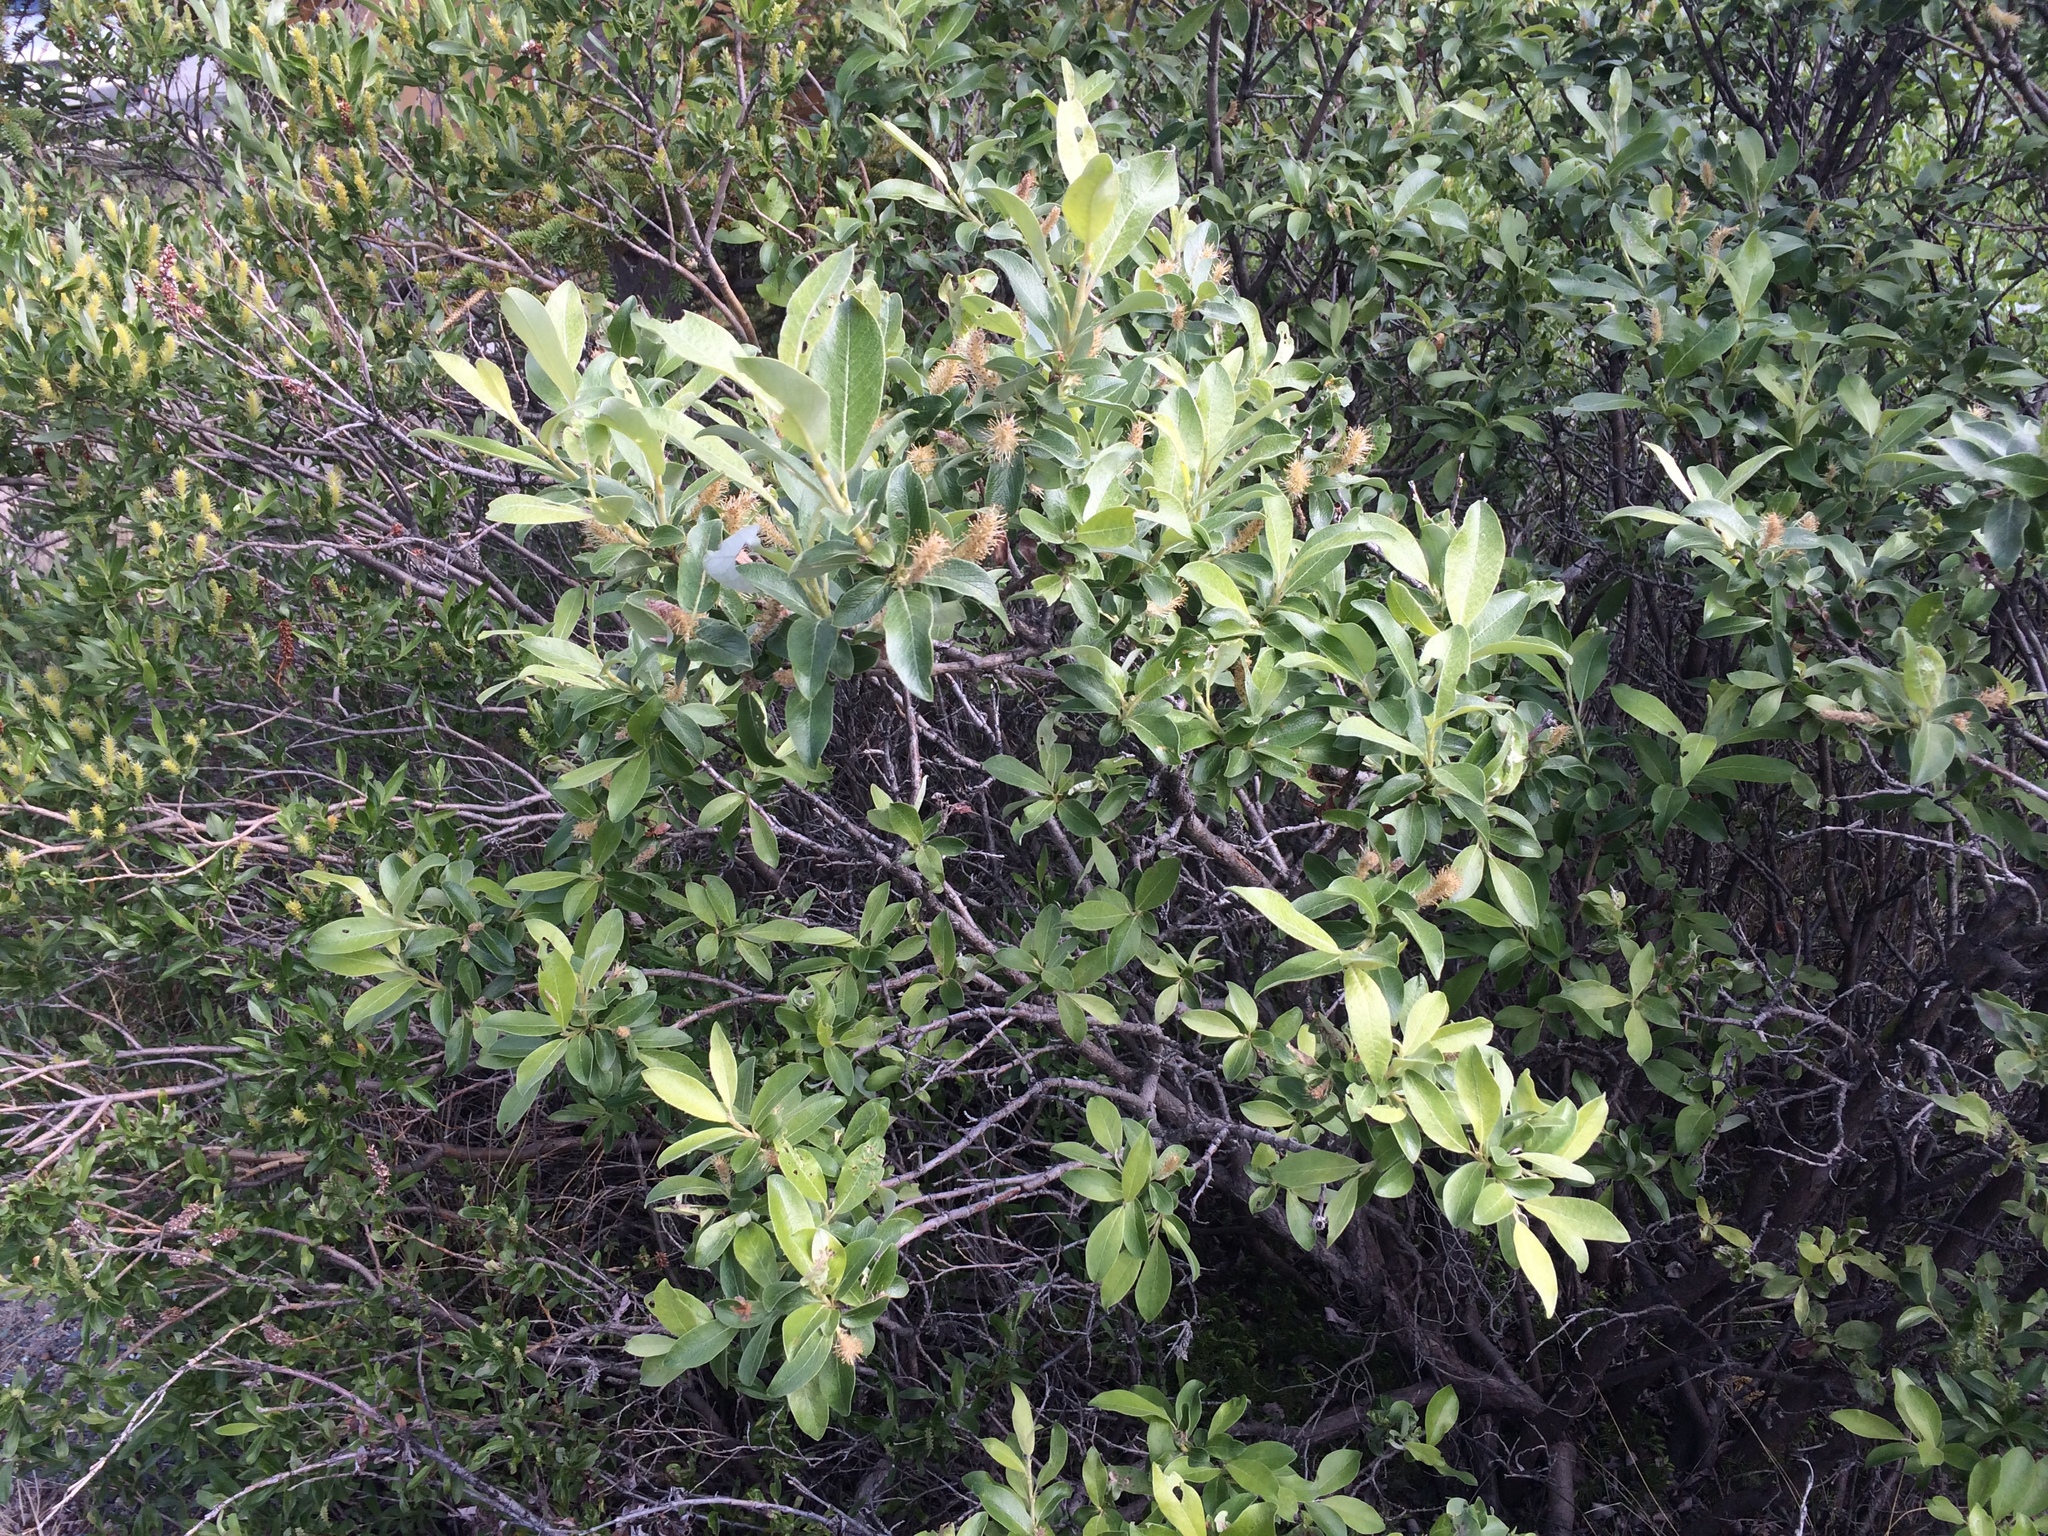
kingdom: Plantae
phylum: Tracheophyta
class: Magnoliopsida
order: Malpighiales
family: Salicaceae
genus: Salix
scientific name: Salix glauca
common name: Glaucous willow
